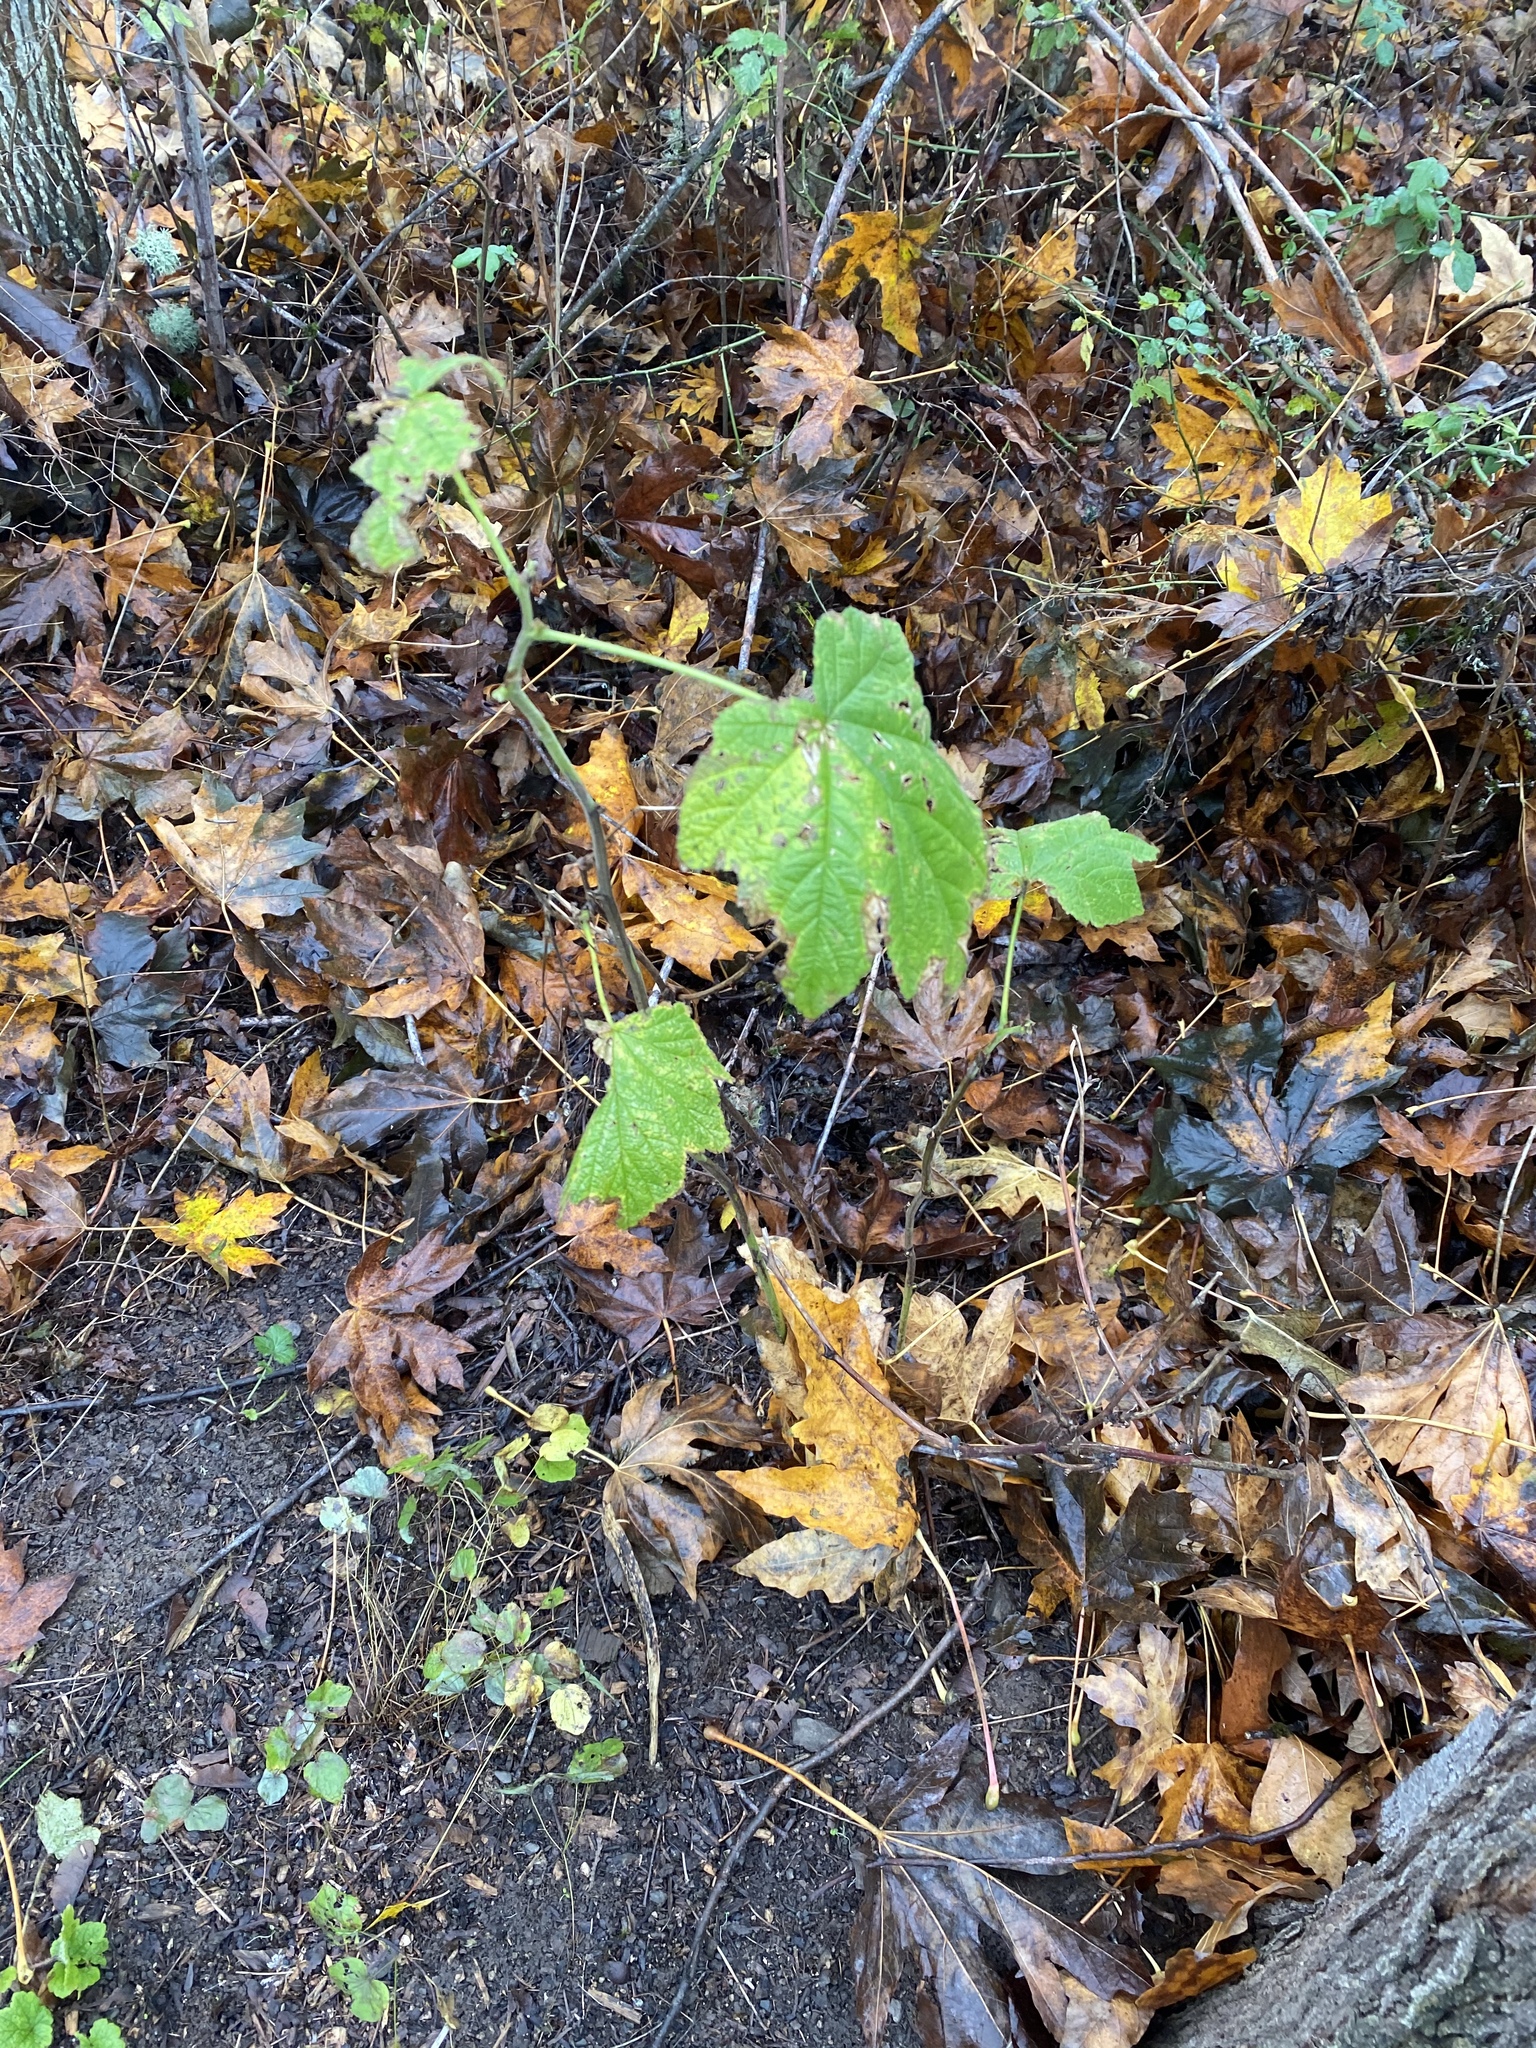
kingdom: Plantae
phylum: Tracheophyta
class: Magnoliopsida
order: Rosales
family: Rosaceae
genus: Rubus
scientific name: Rubus parviflorus
